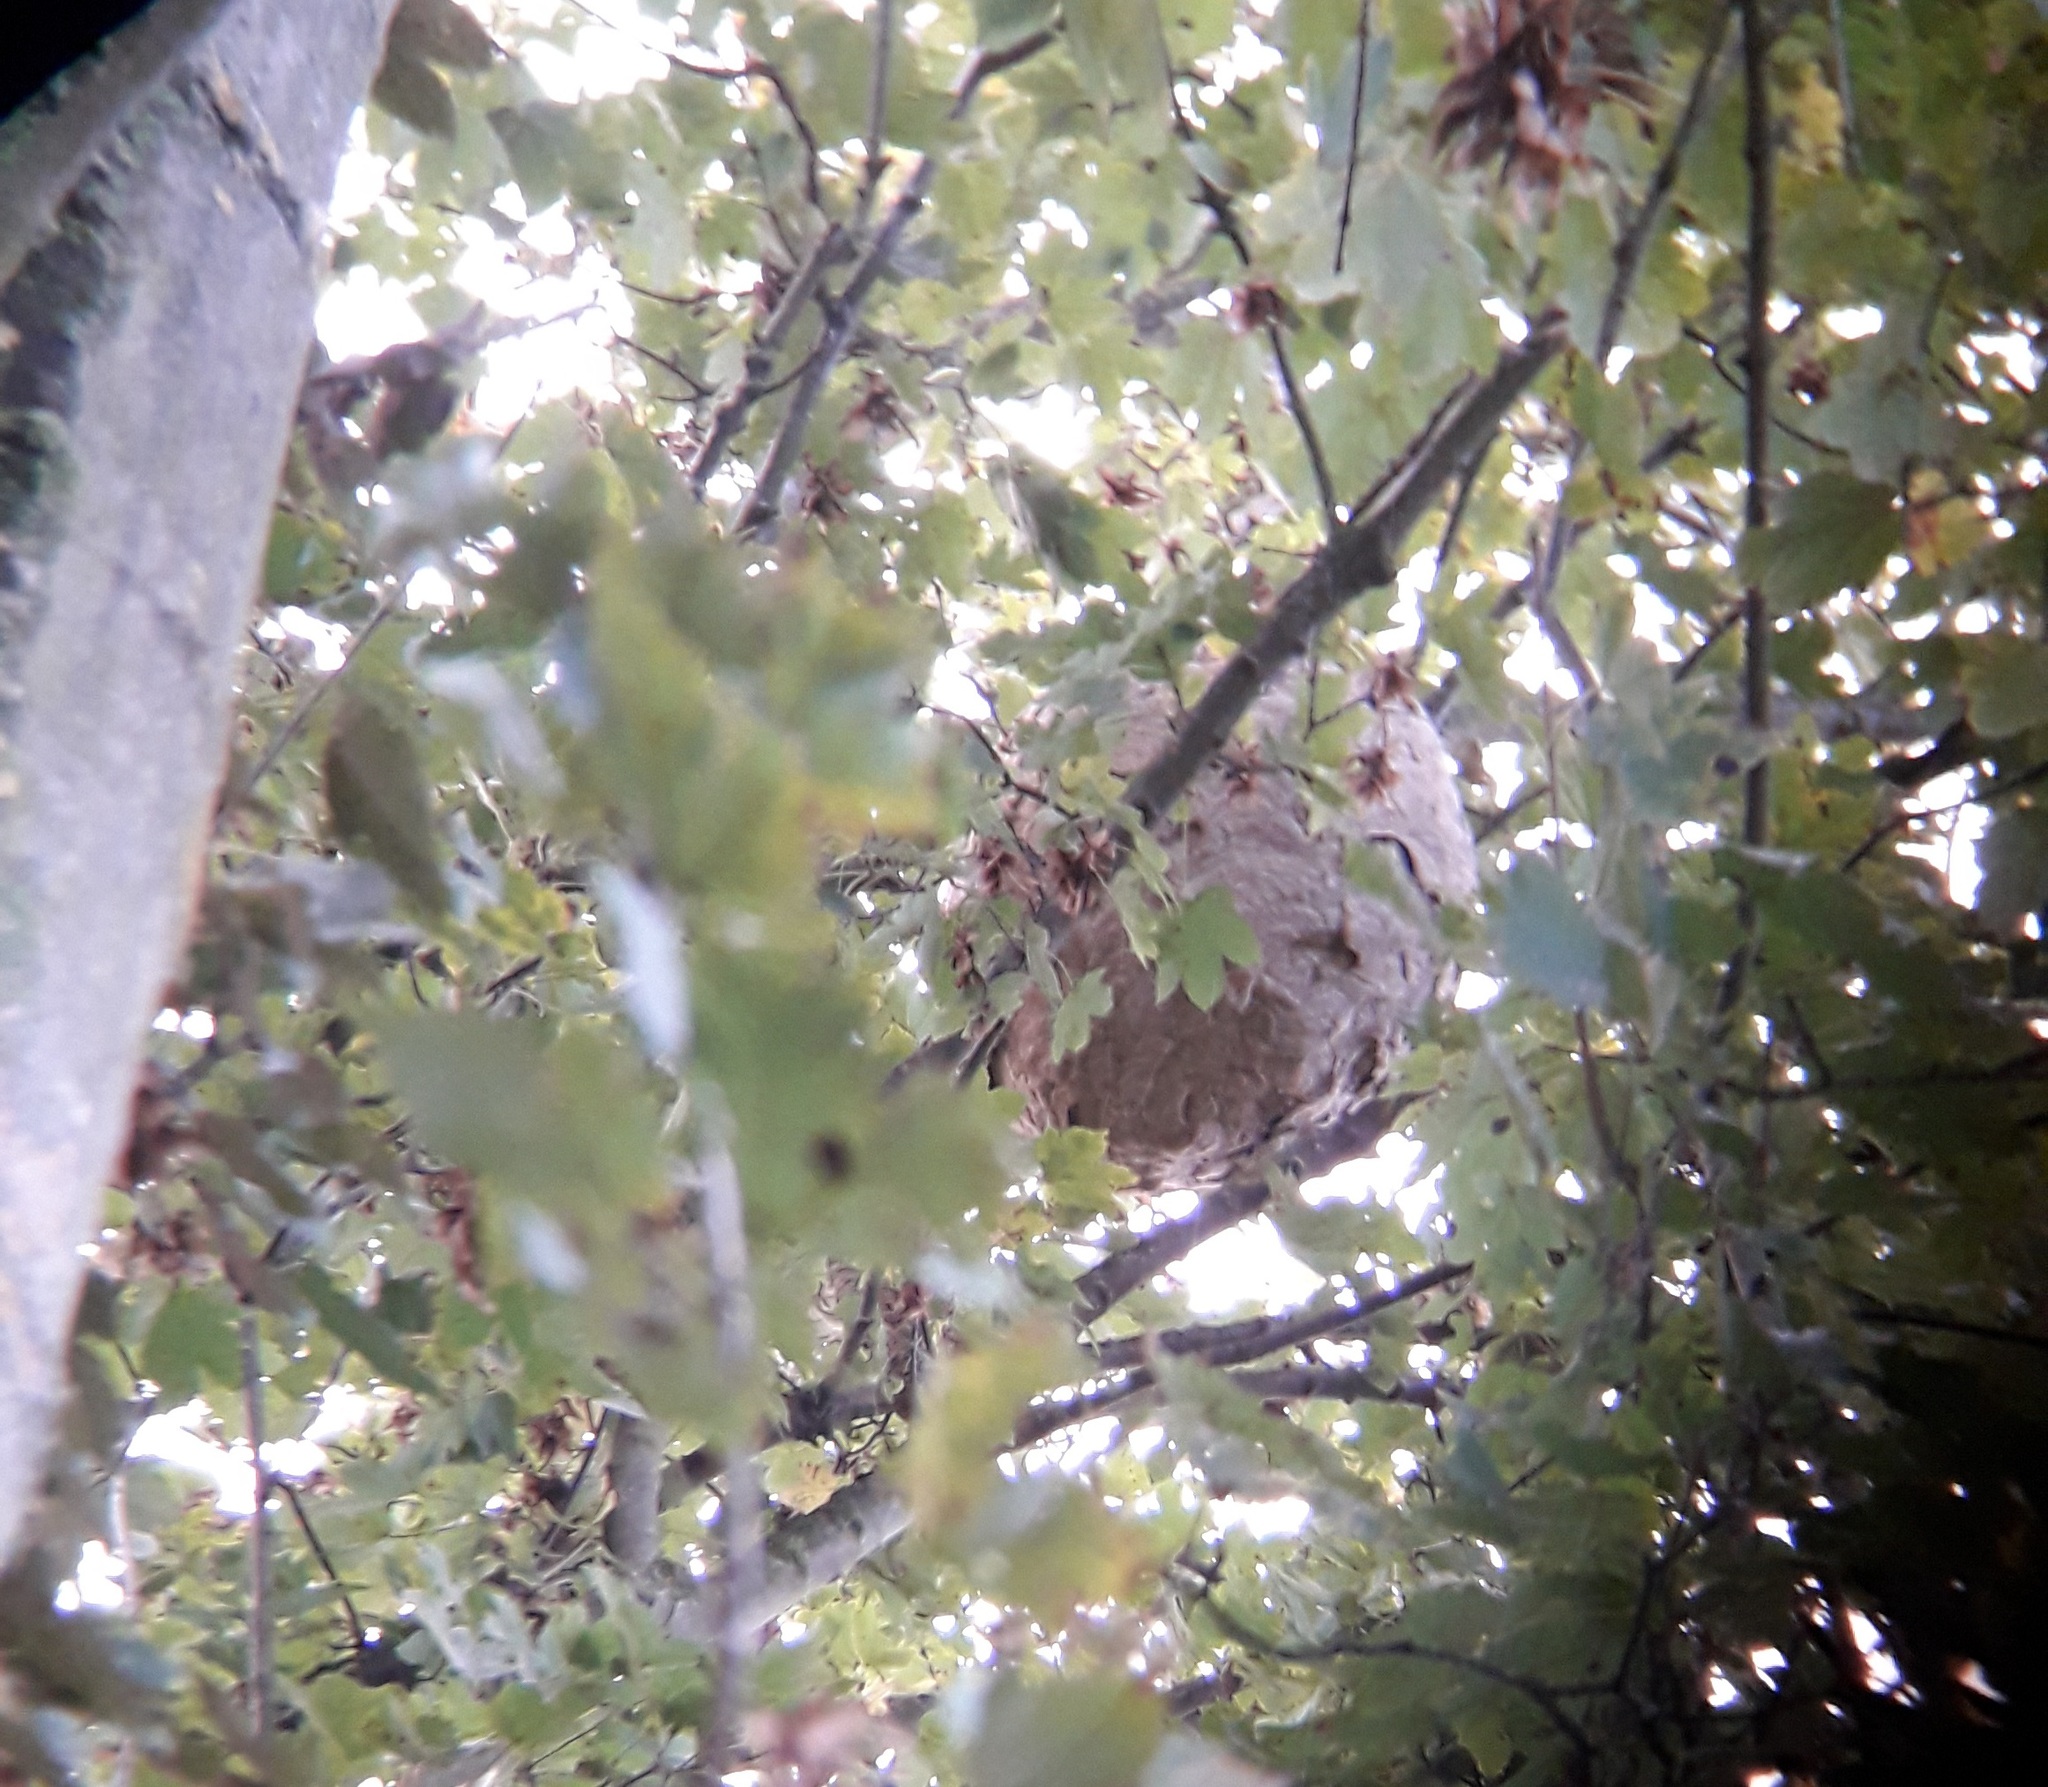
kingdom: Animalia
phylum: Arthropoda
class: Insecta
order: Hymenoptera
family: Vespidae
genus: Vespa
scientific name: Vespa velutina
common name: Asian hornet
